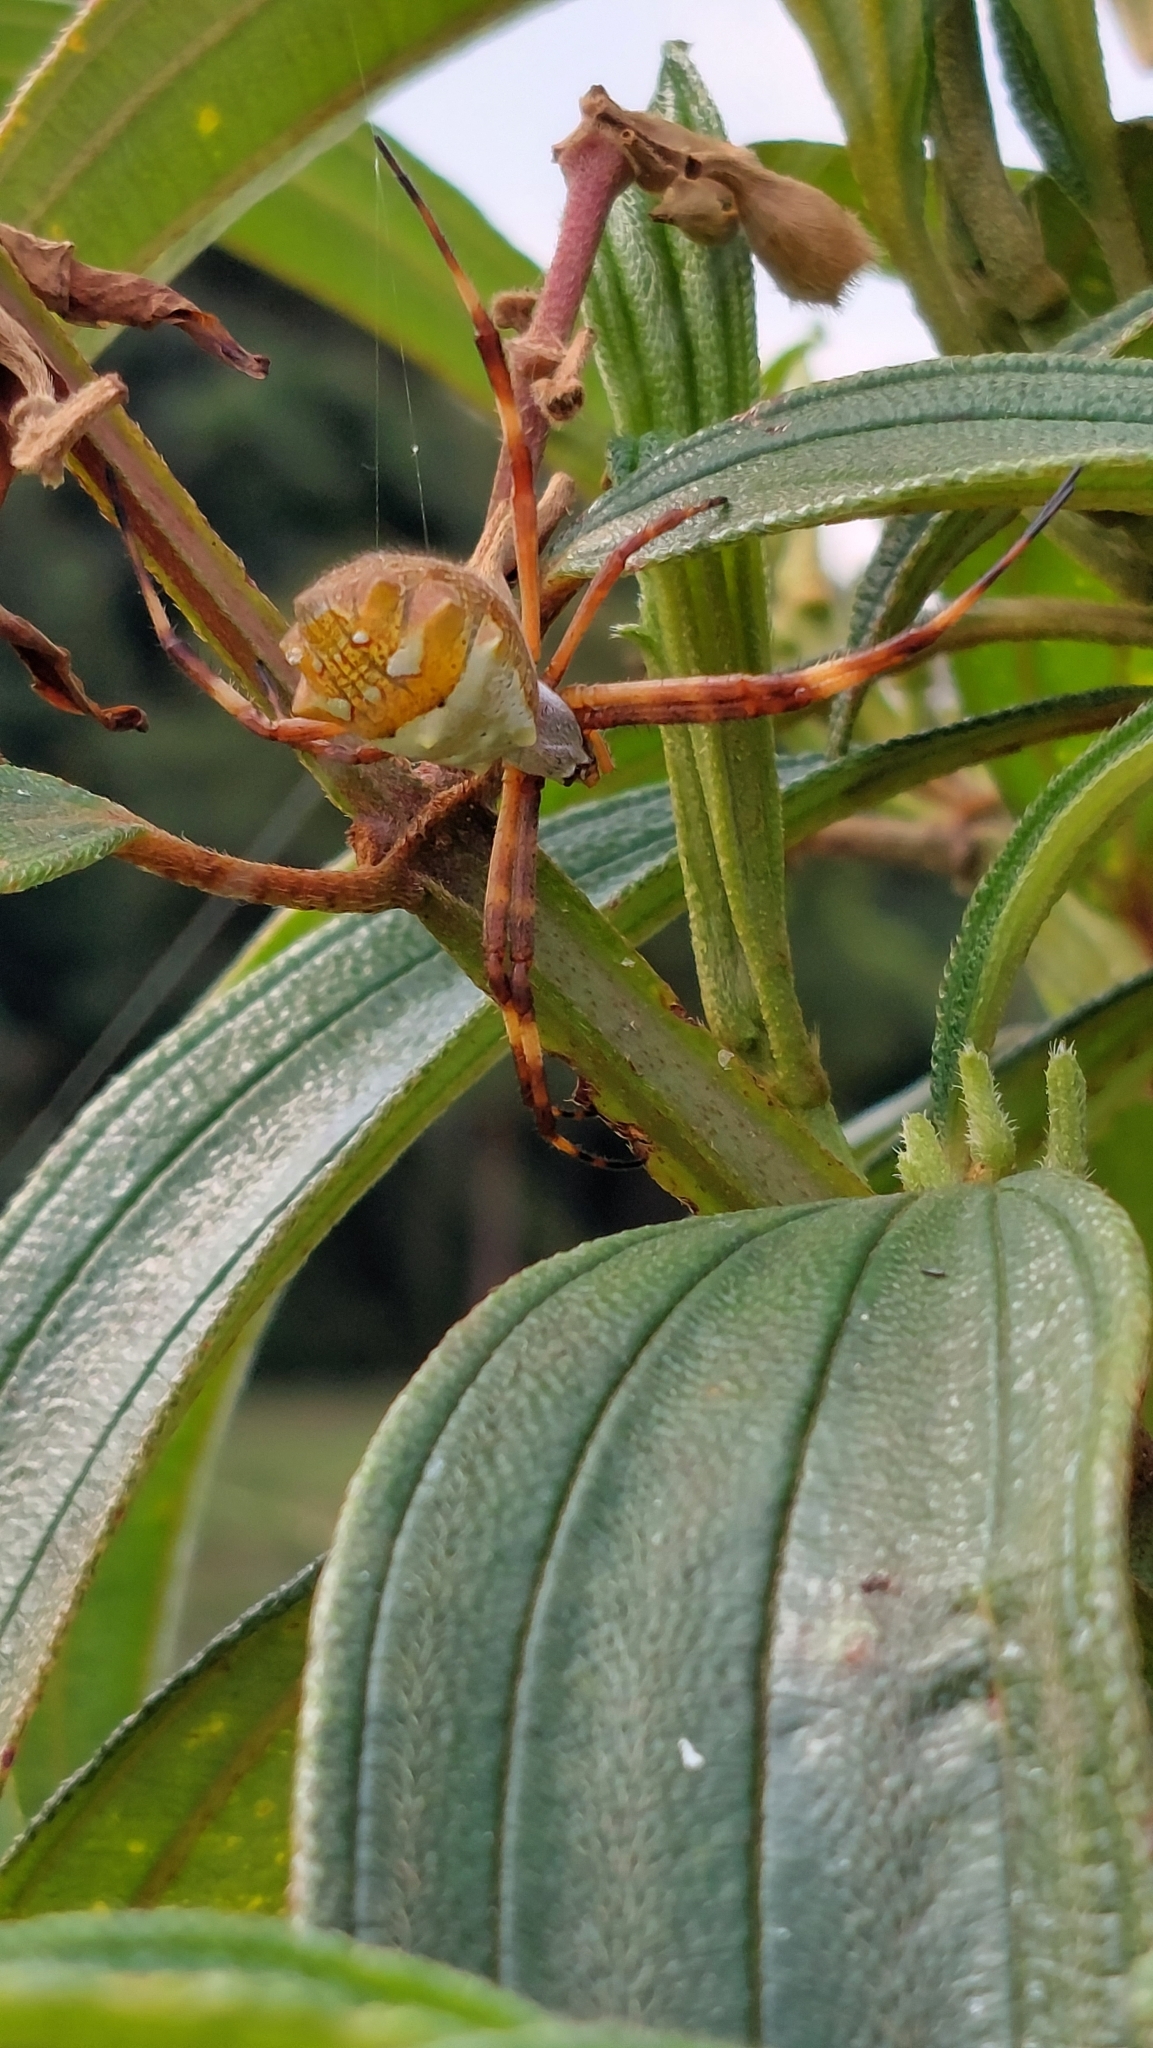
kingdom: Animalia
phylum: Arthropoda
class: Arachnida
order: Araneae
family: Araneidae
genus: Argiope
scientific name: Argiope argentata
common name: Orb weavers
